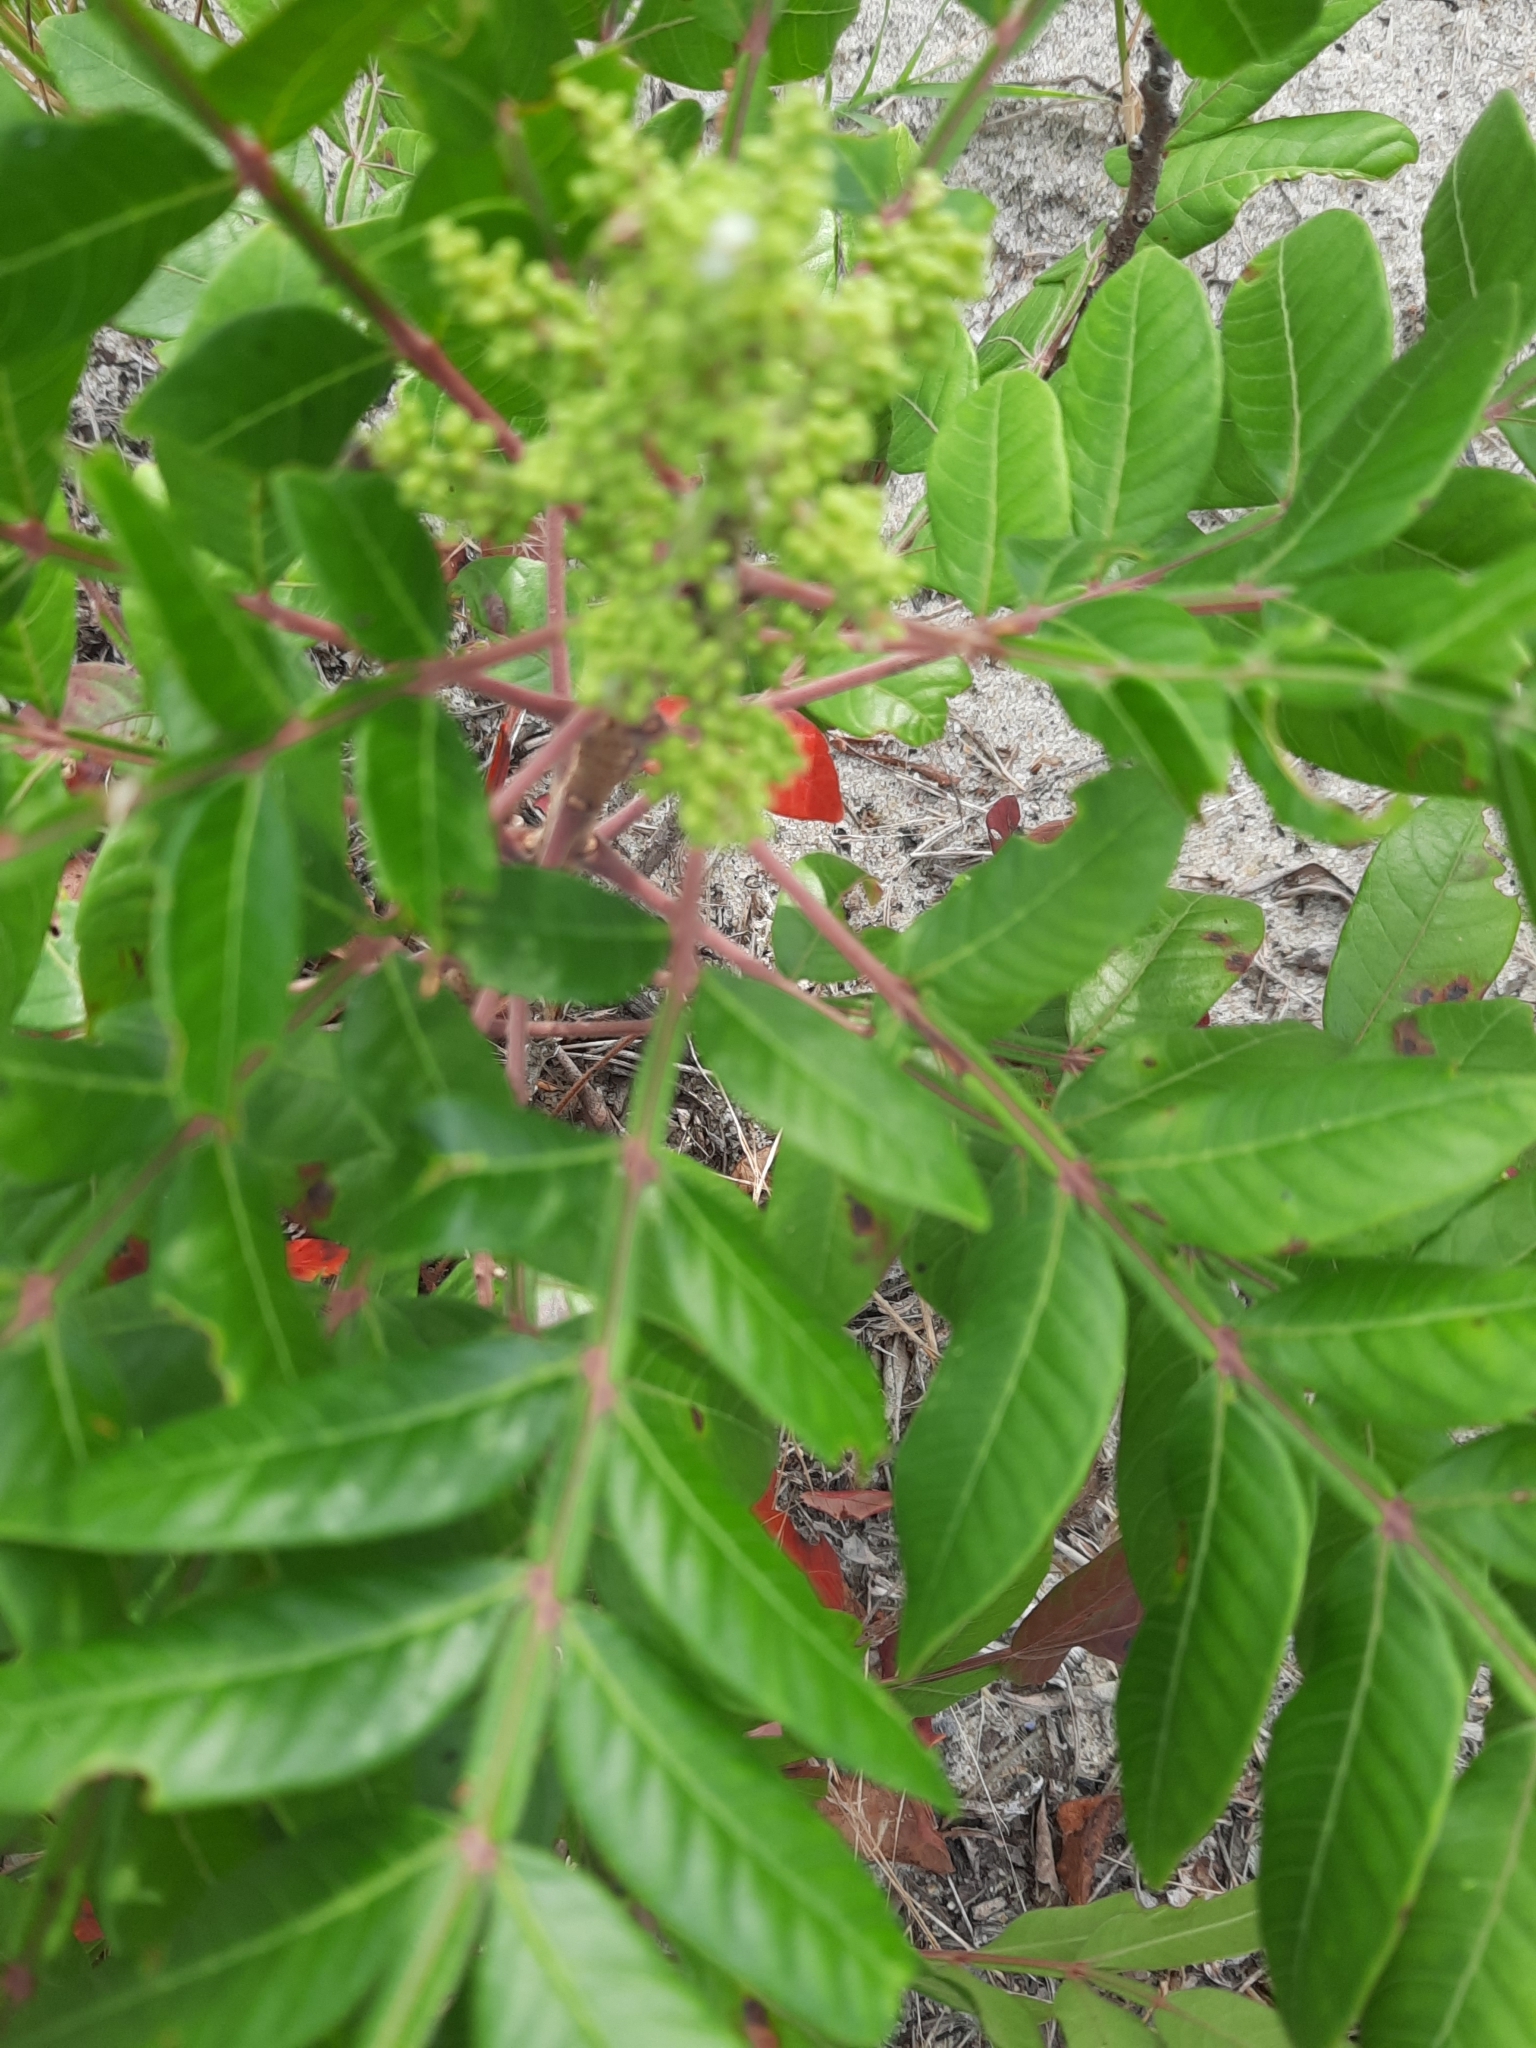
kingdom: Plantae
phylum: Tracheophyta
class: Magnoliopsida
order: Sapindales
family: Anacardiaceae
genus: Rhus
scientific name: Rhus copallina
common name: Shining sumac
